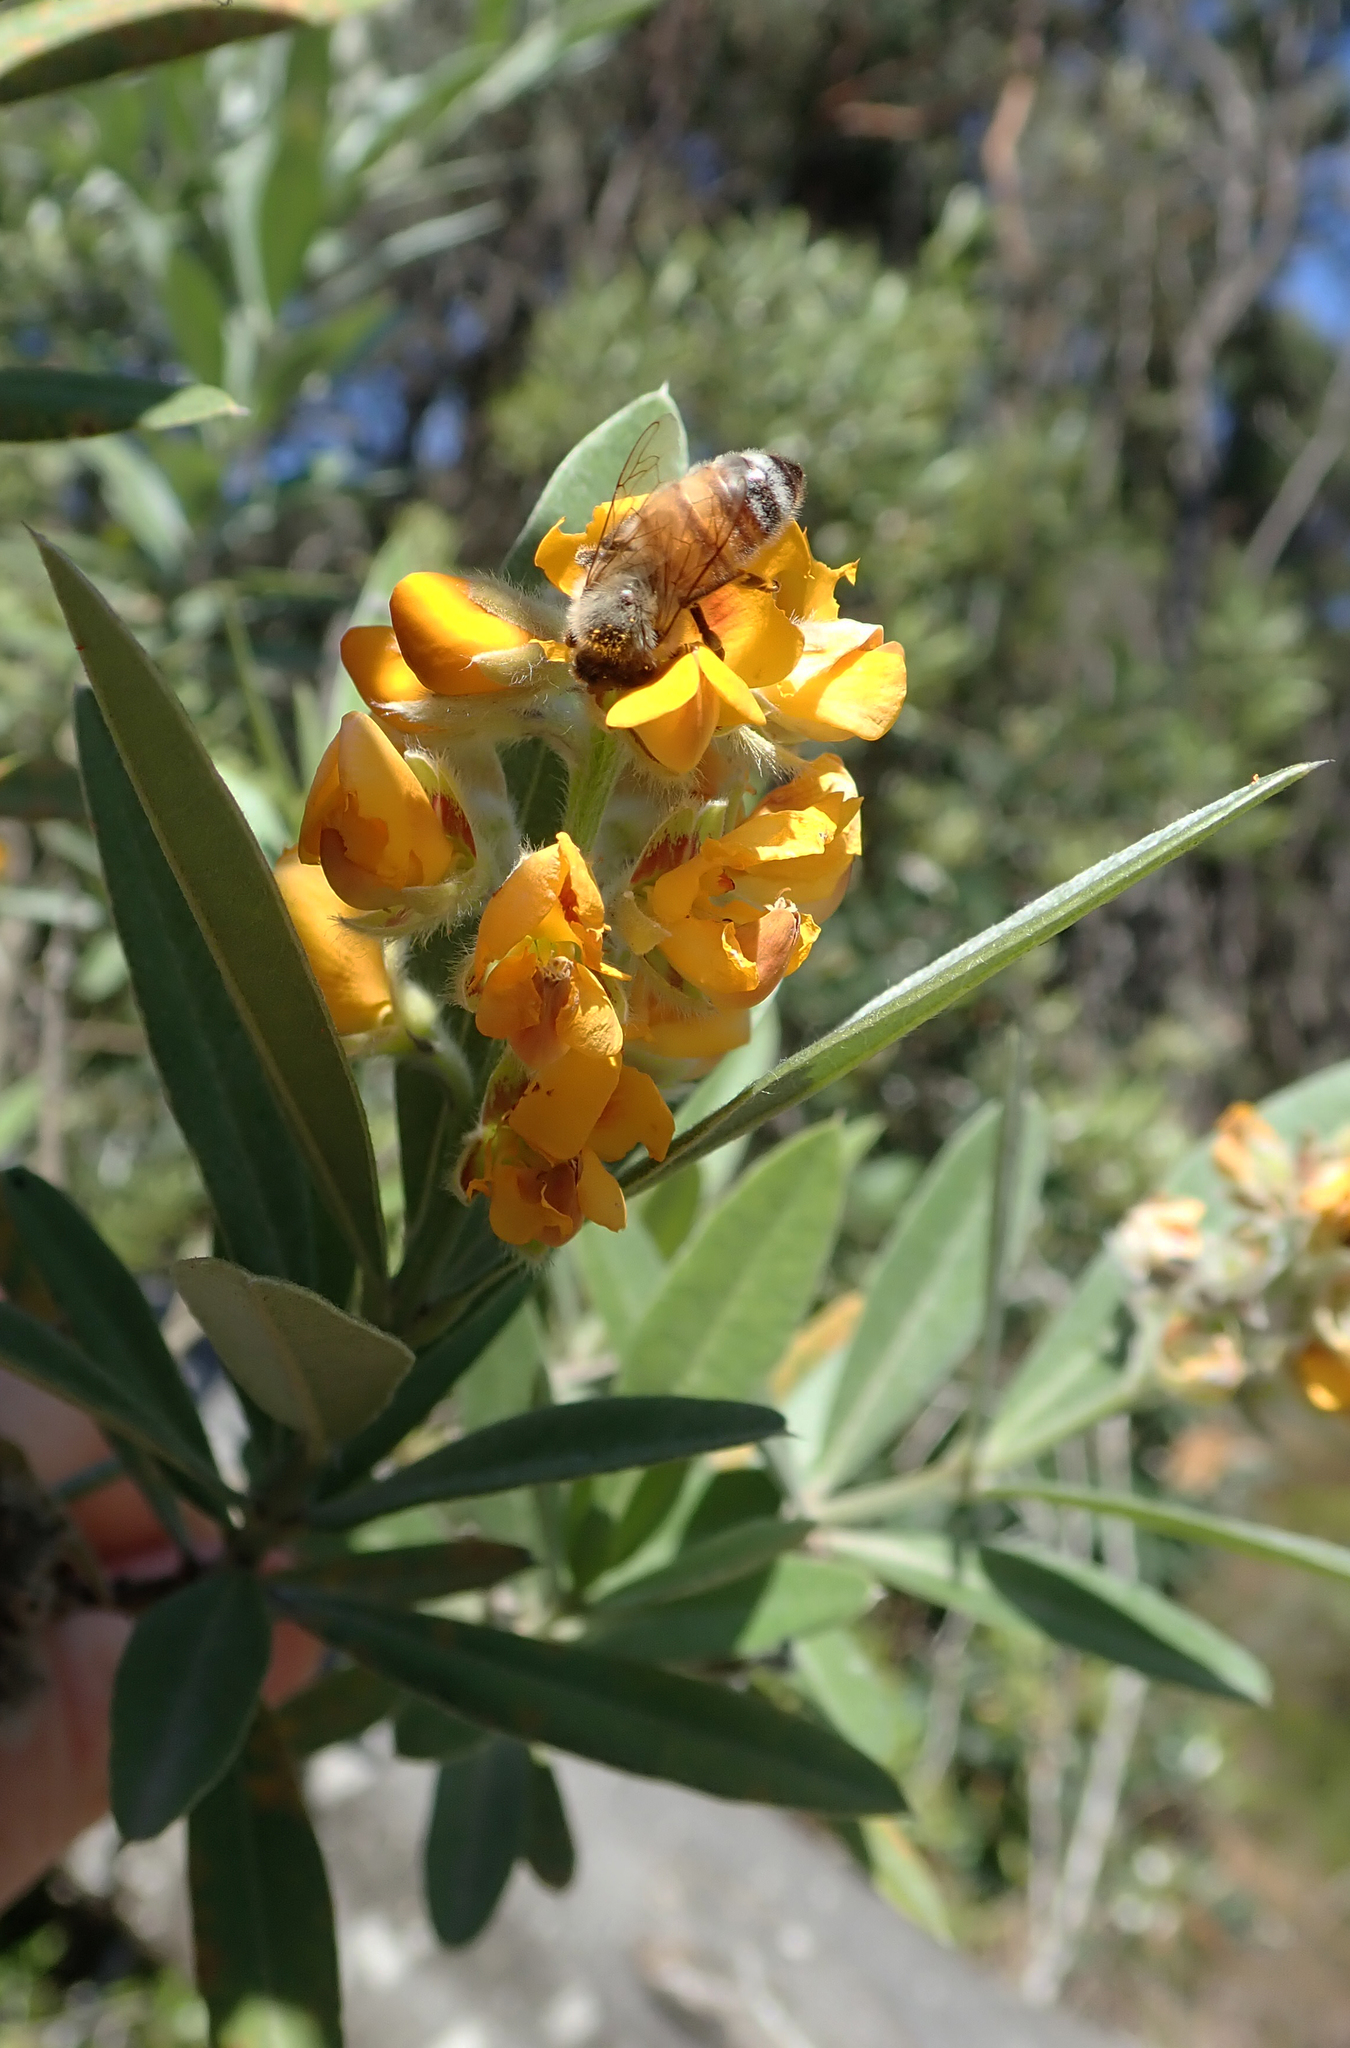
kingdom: Plantae
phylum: Tracheophyta
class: Magnoliopsida
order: Fabales
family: Fabaceae
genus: Callistachys
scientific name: Callistachys lanceolata
